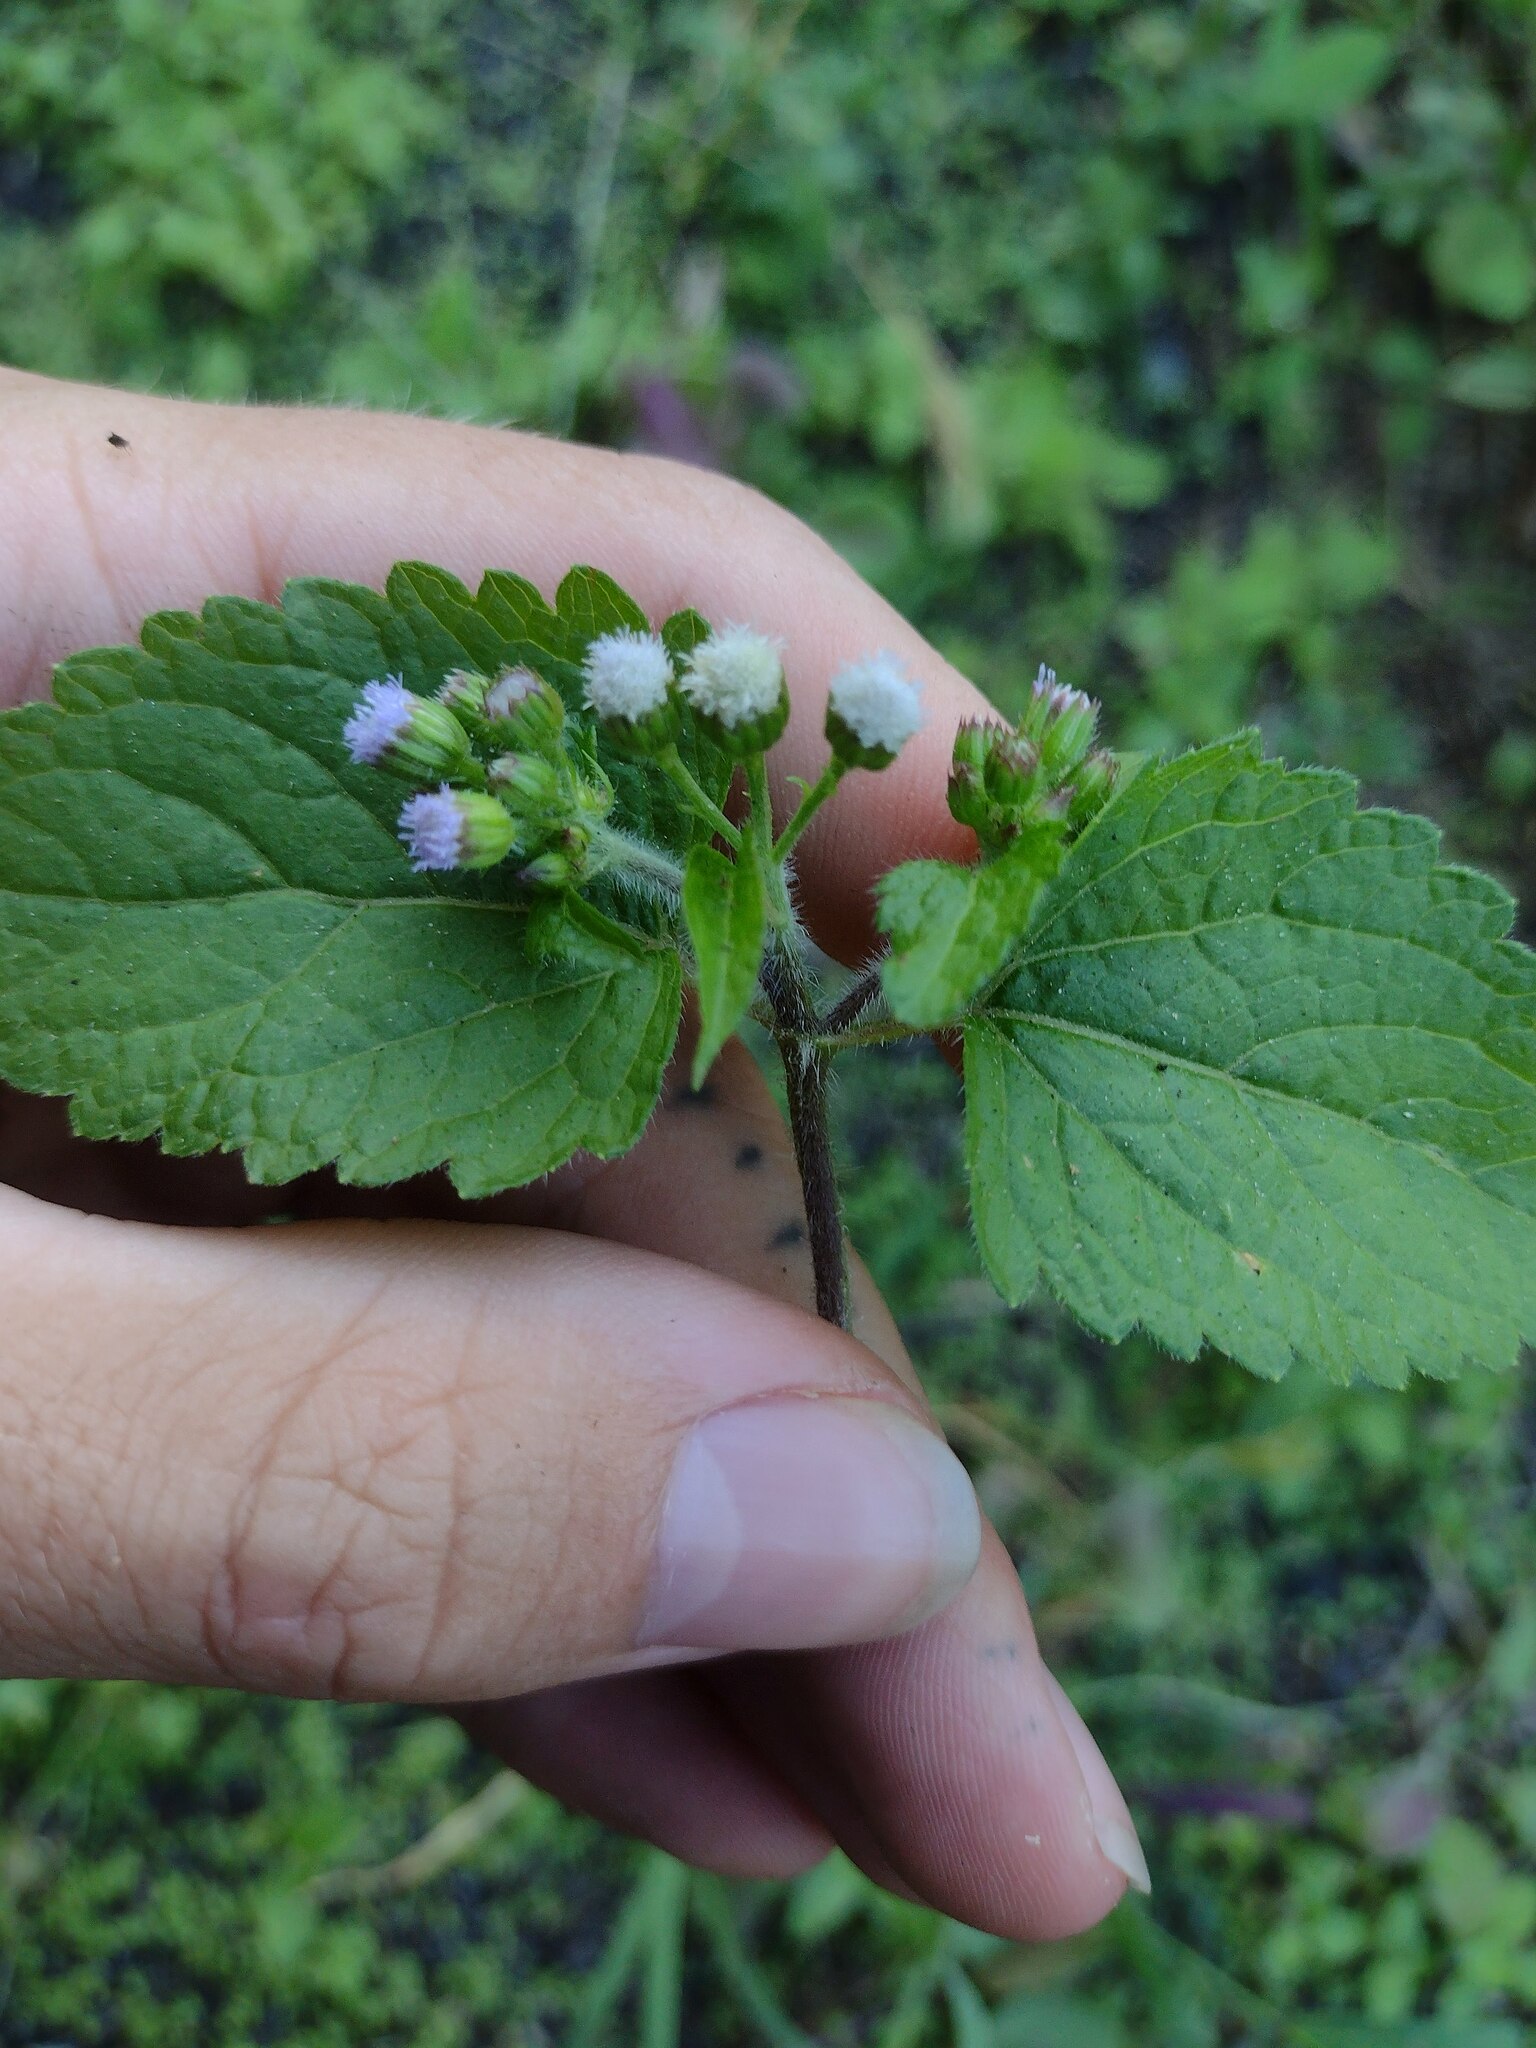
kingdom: Plantae
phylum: Tracheophyta
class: Magnoliopsida
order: Asterales
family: Asteraceae
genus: Ageratum
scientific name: Ageratum conyzoides
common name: Tropical whiteweed
